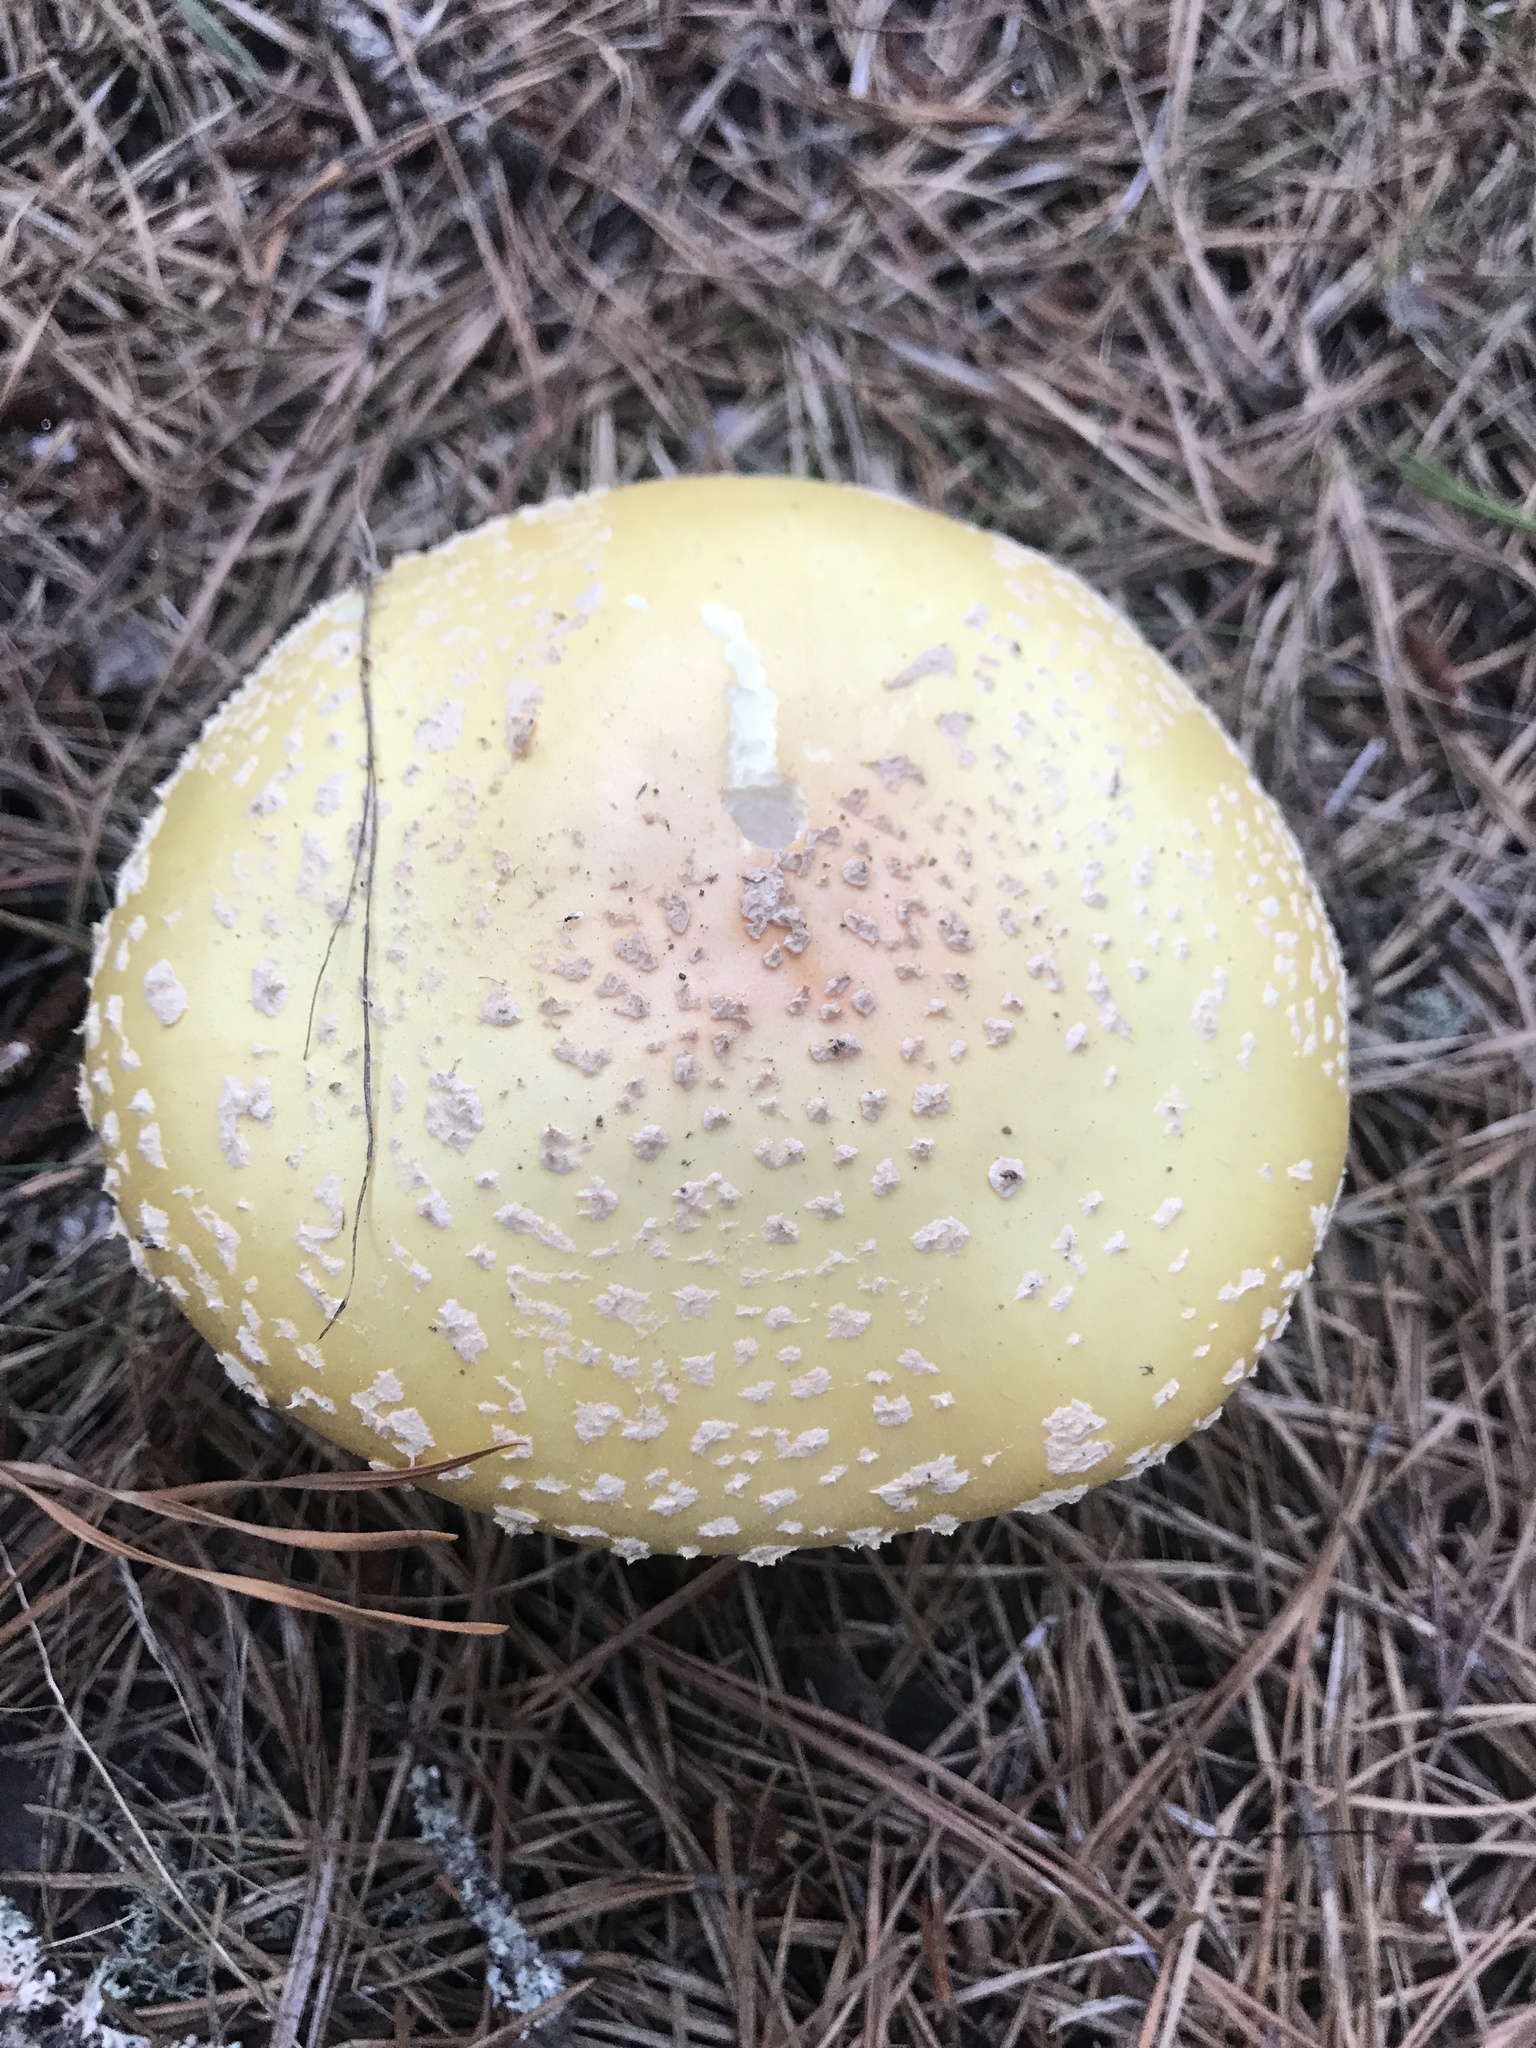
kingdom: Fungi
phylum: Basidiomycota
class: Agaricomycetes
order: Agaricales
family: Amanitaceae
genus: Amanita
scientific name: Amanita muscaria
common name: Fly agaric
